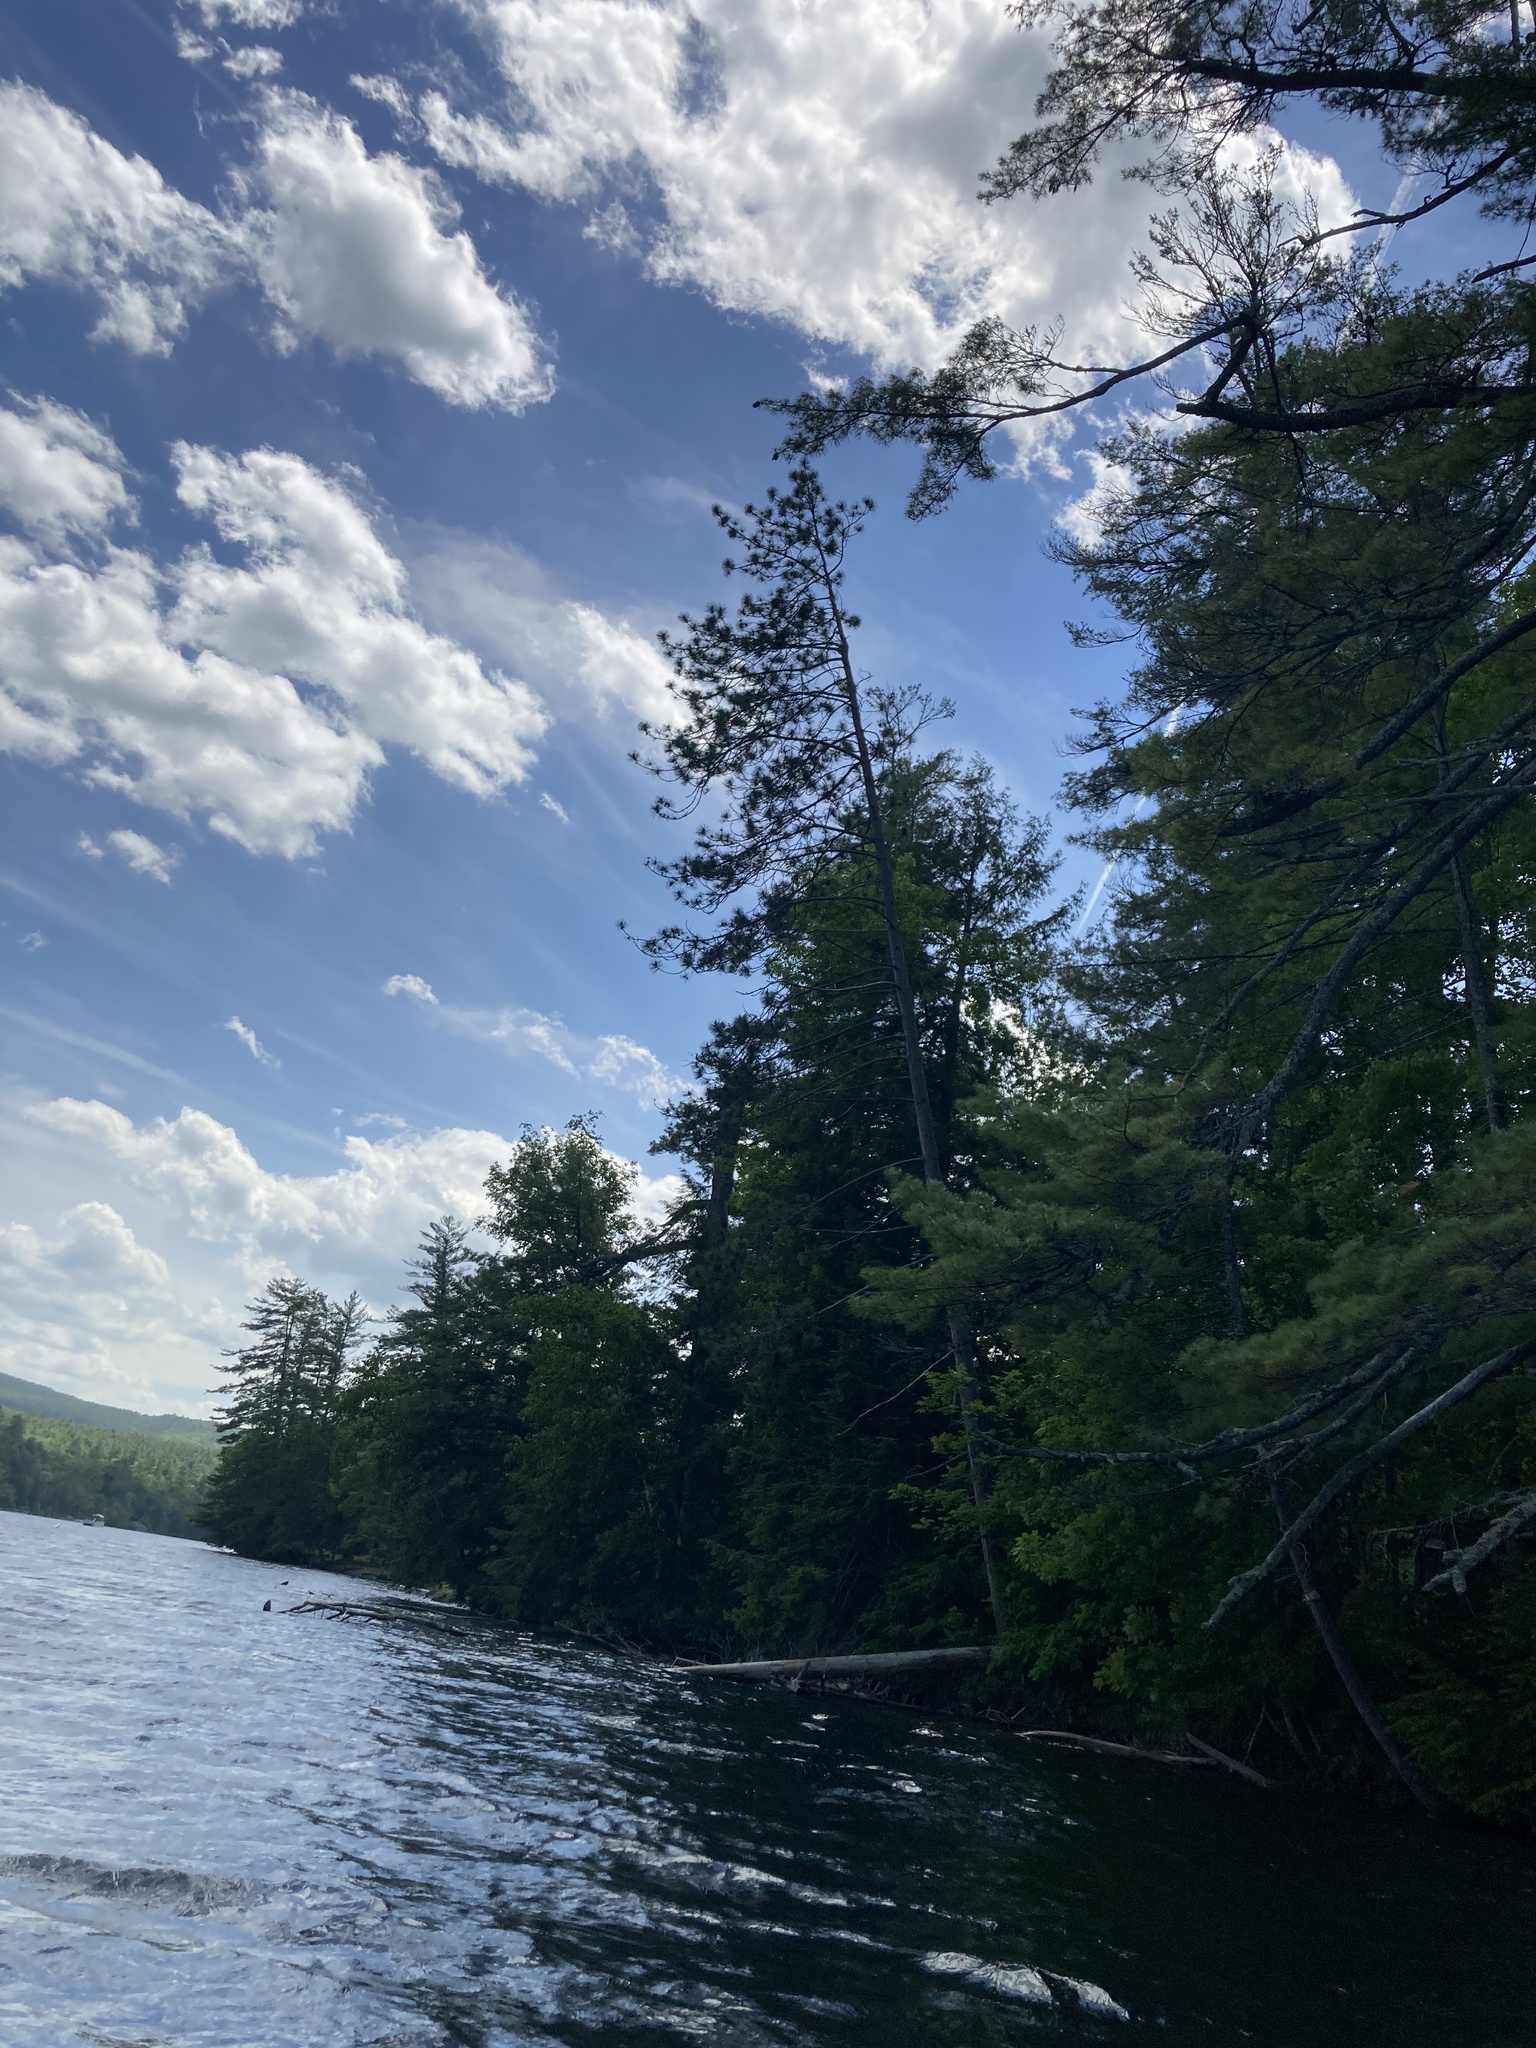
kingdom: Plantae
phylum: Tracheophyta
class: Pinopsida
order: Pinales
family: Pinaceae
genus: Pinus
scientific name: Pinus resinosa
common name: Norway pine
